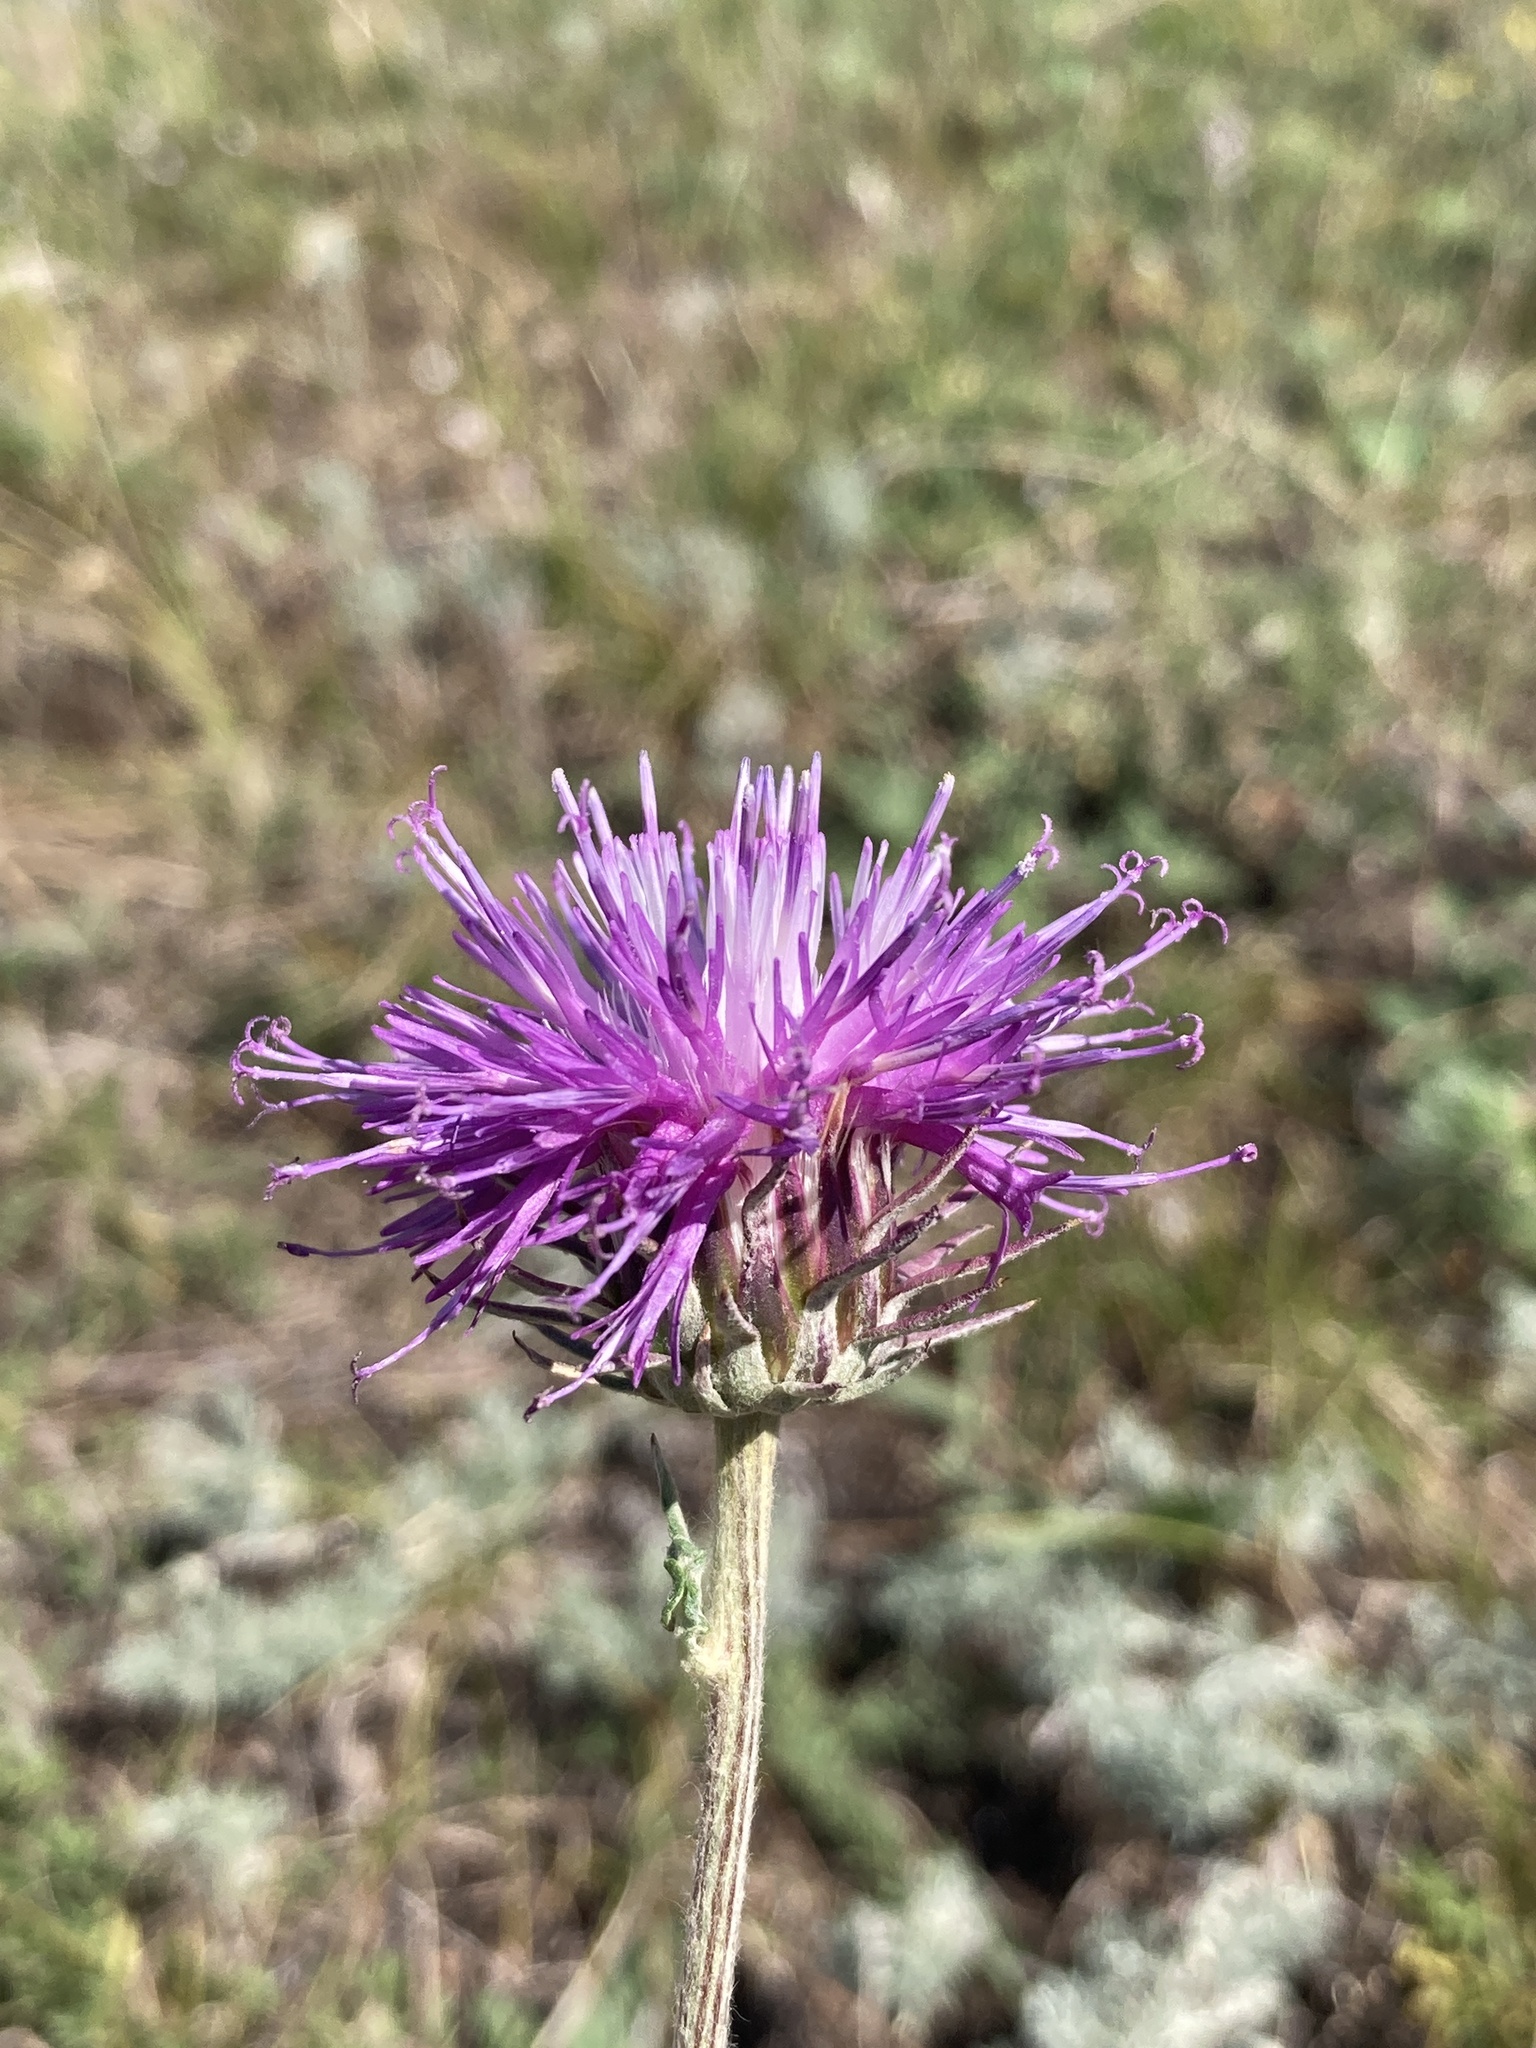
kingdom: Plantae
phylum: Tracheophyta
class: Magnoliopsida
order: Asterales
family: Asteraceae
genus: Jurinea
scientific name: Jurinea cyanoides
